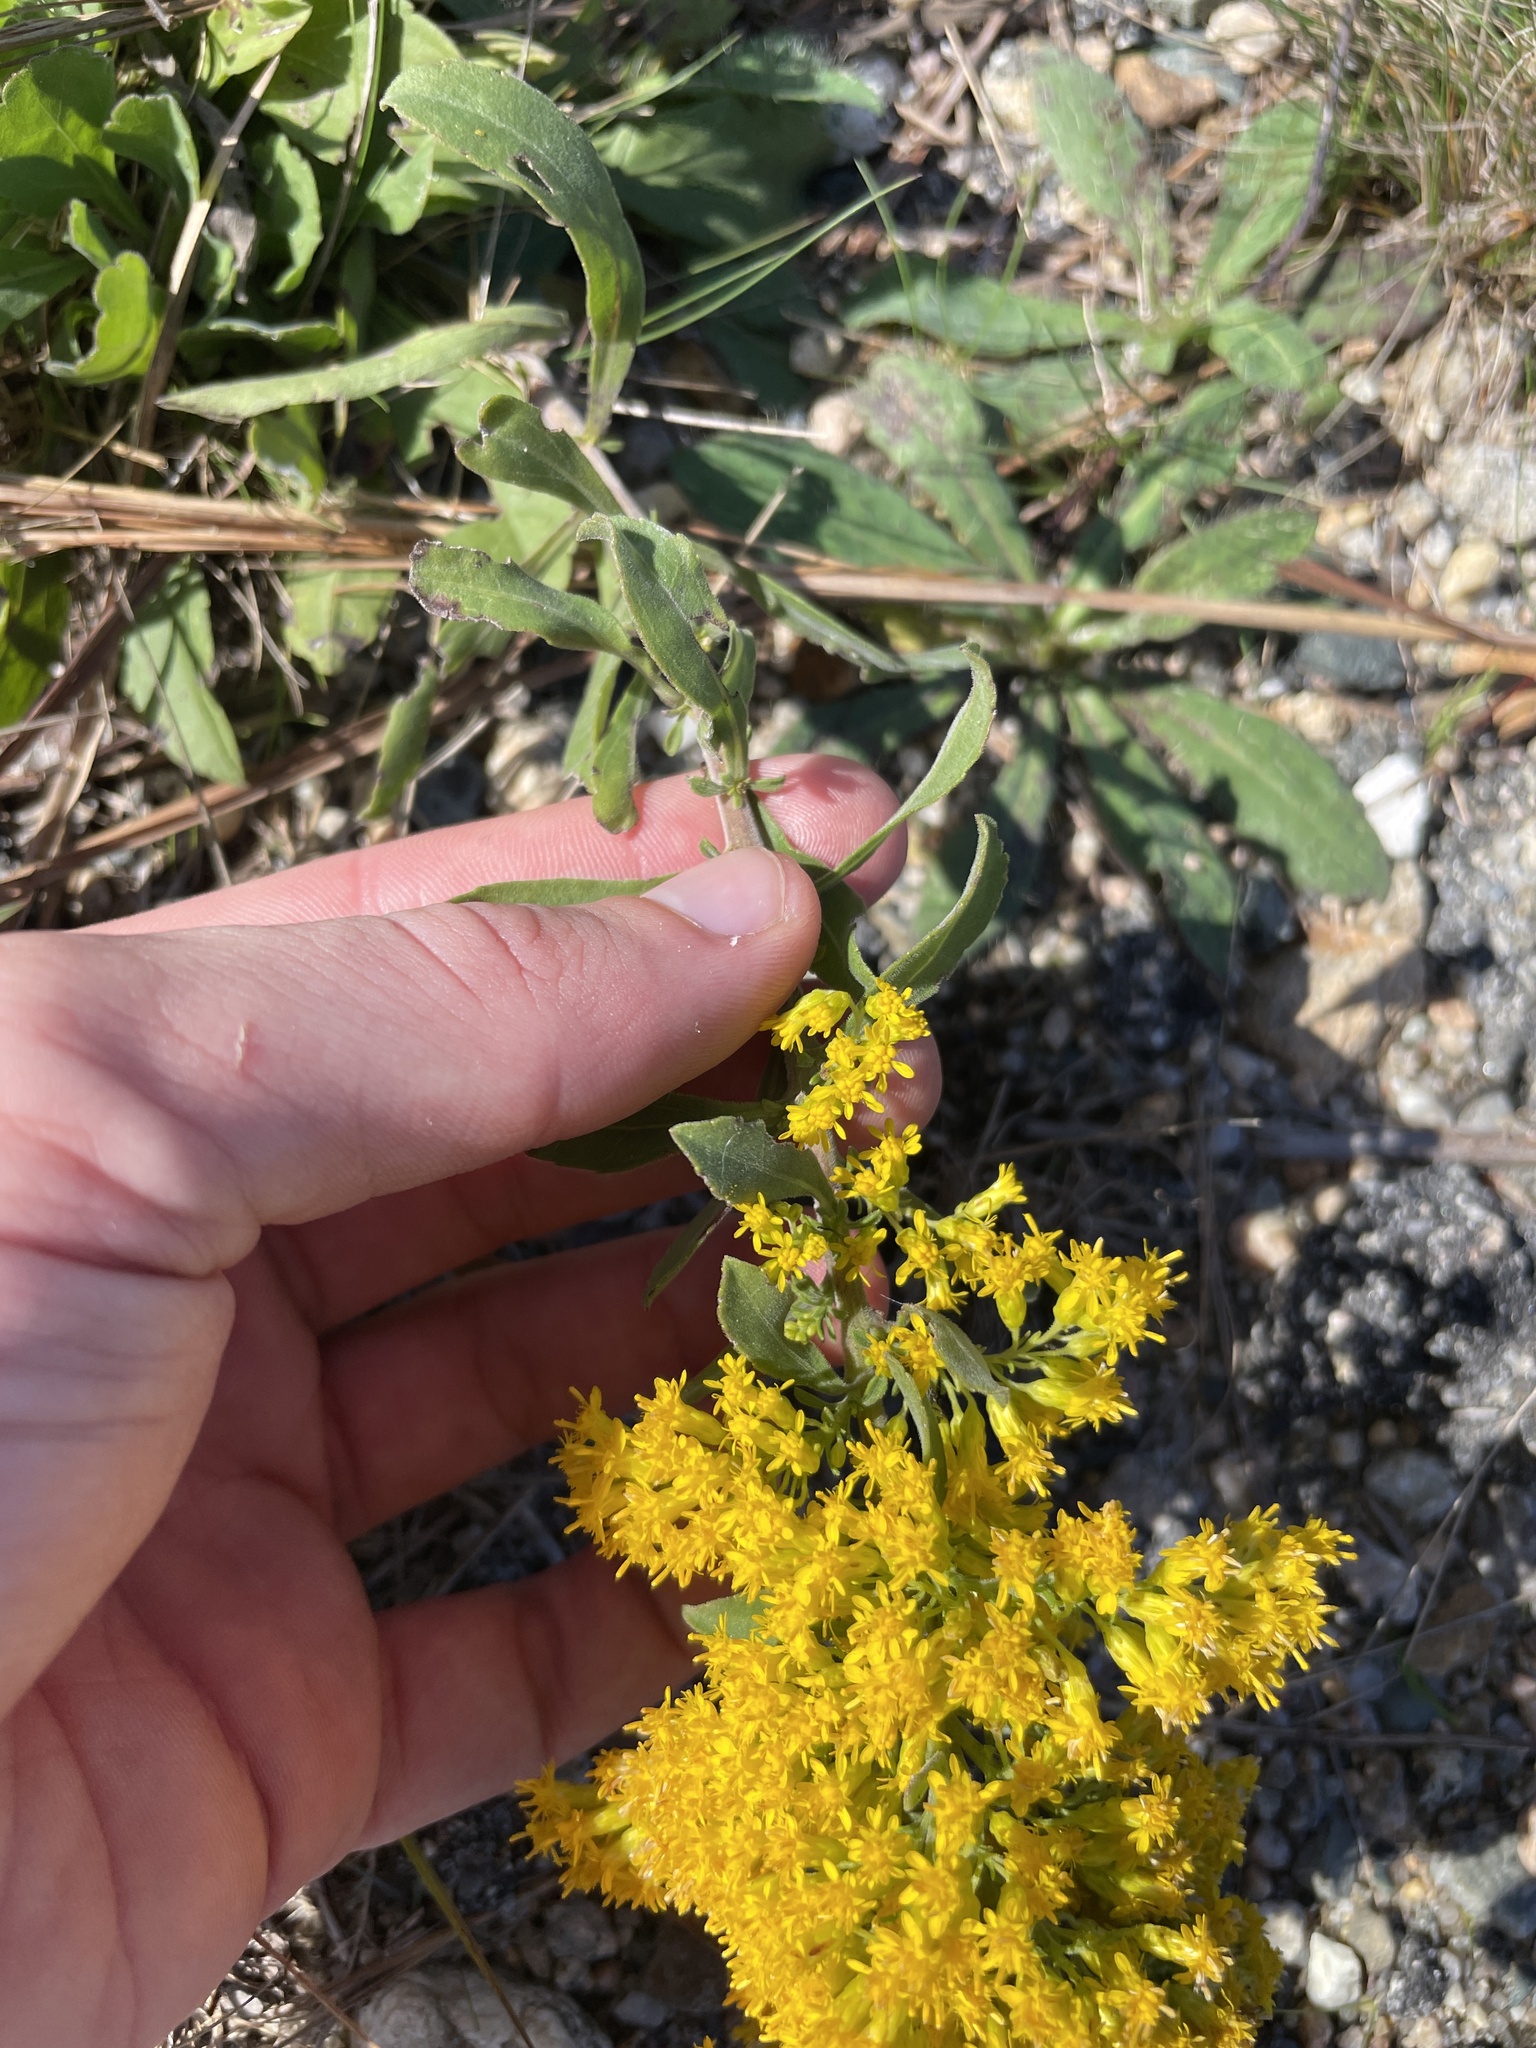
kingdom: Plantae
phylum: Tracheophyta
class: Magnoliopsida
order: Asterales
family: Asteraceae
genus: Solidago
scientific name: Solidago nemoralis
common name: Grey goldenrod
